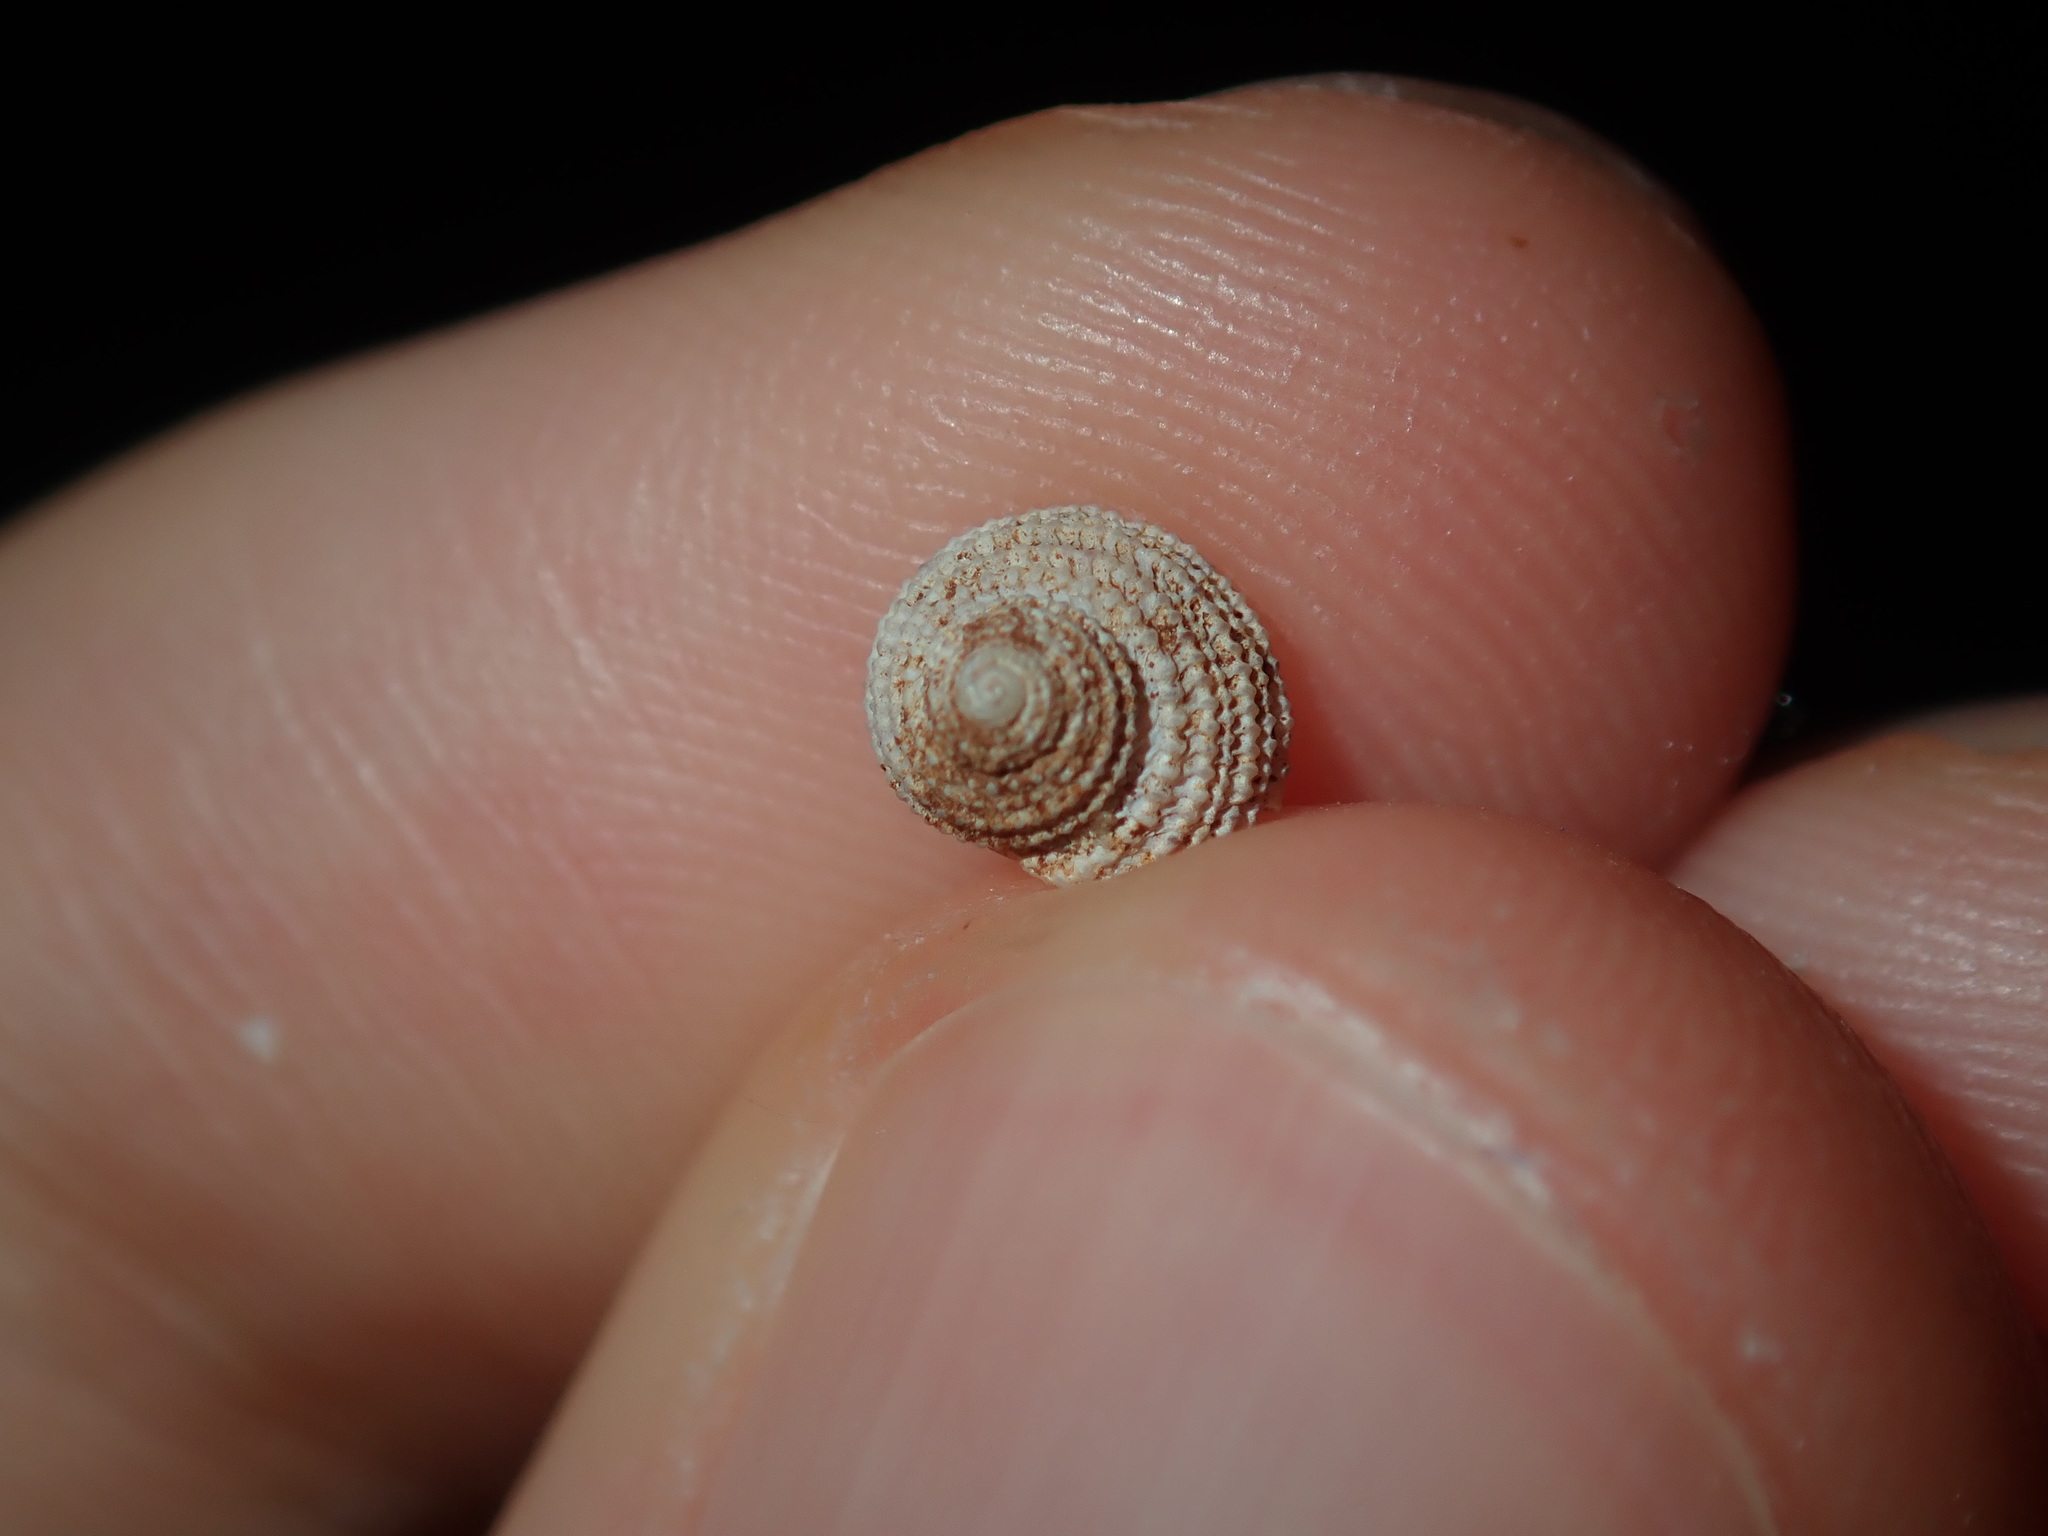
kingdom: Animalia
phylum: Mollusca
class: Gastropoda
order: Seguenziida
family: Chilodontaidae
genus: Vaceuchelus
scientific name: Vaceuchelus ampullus
